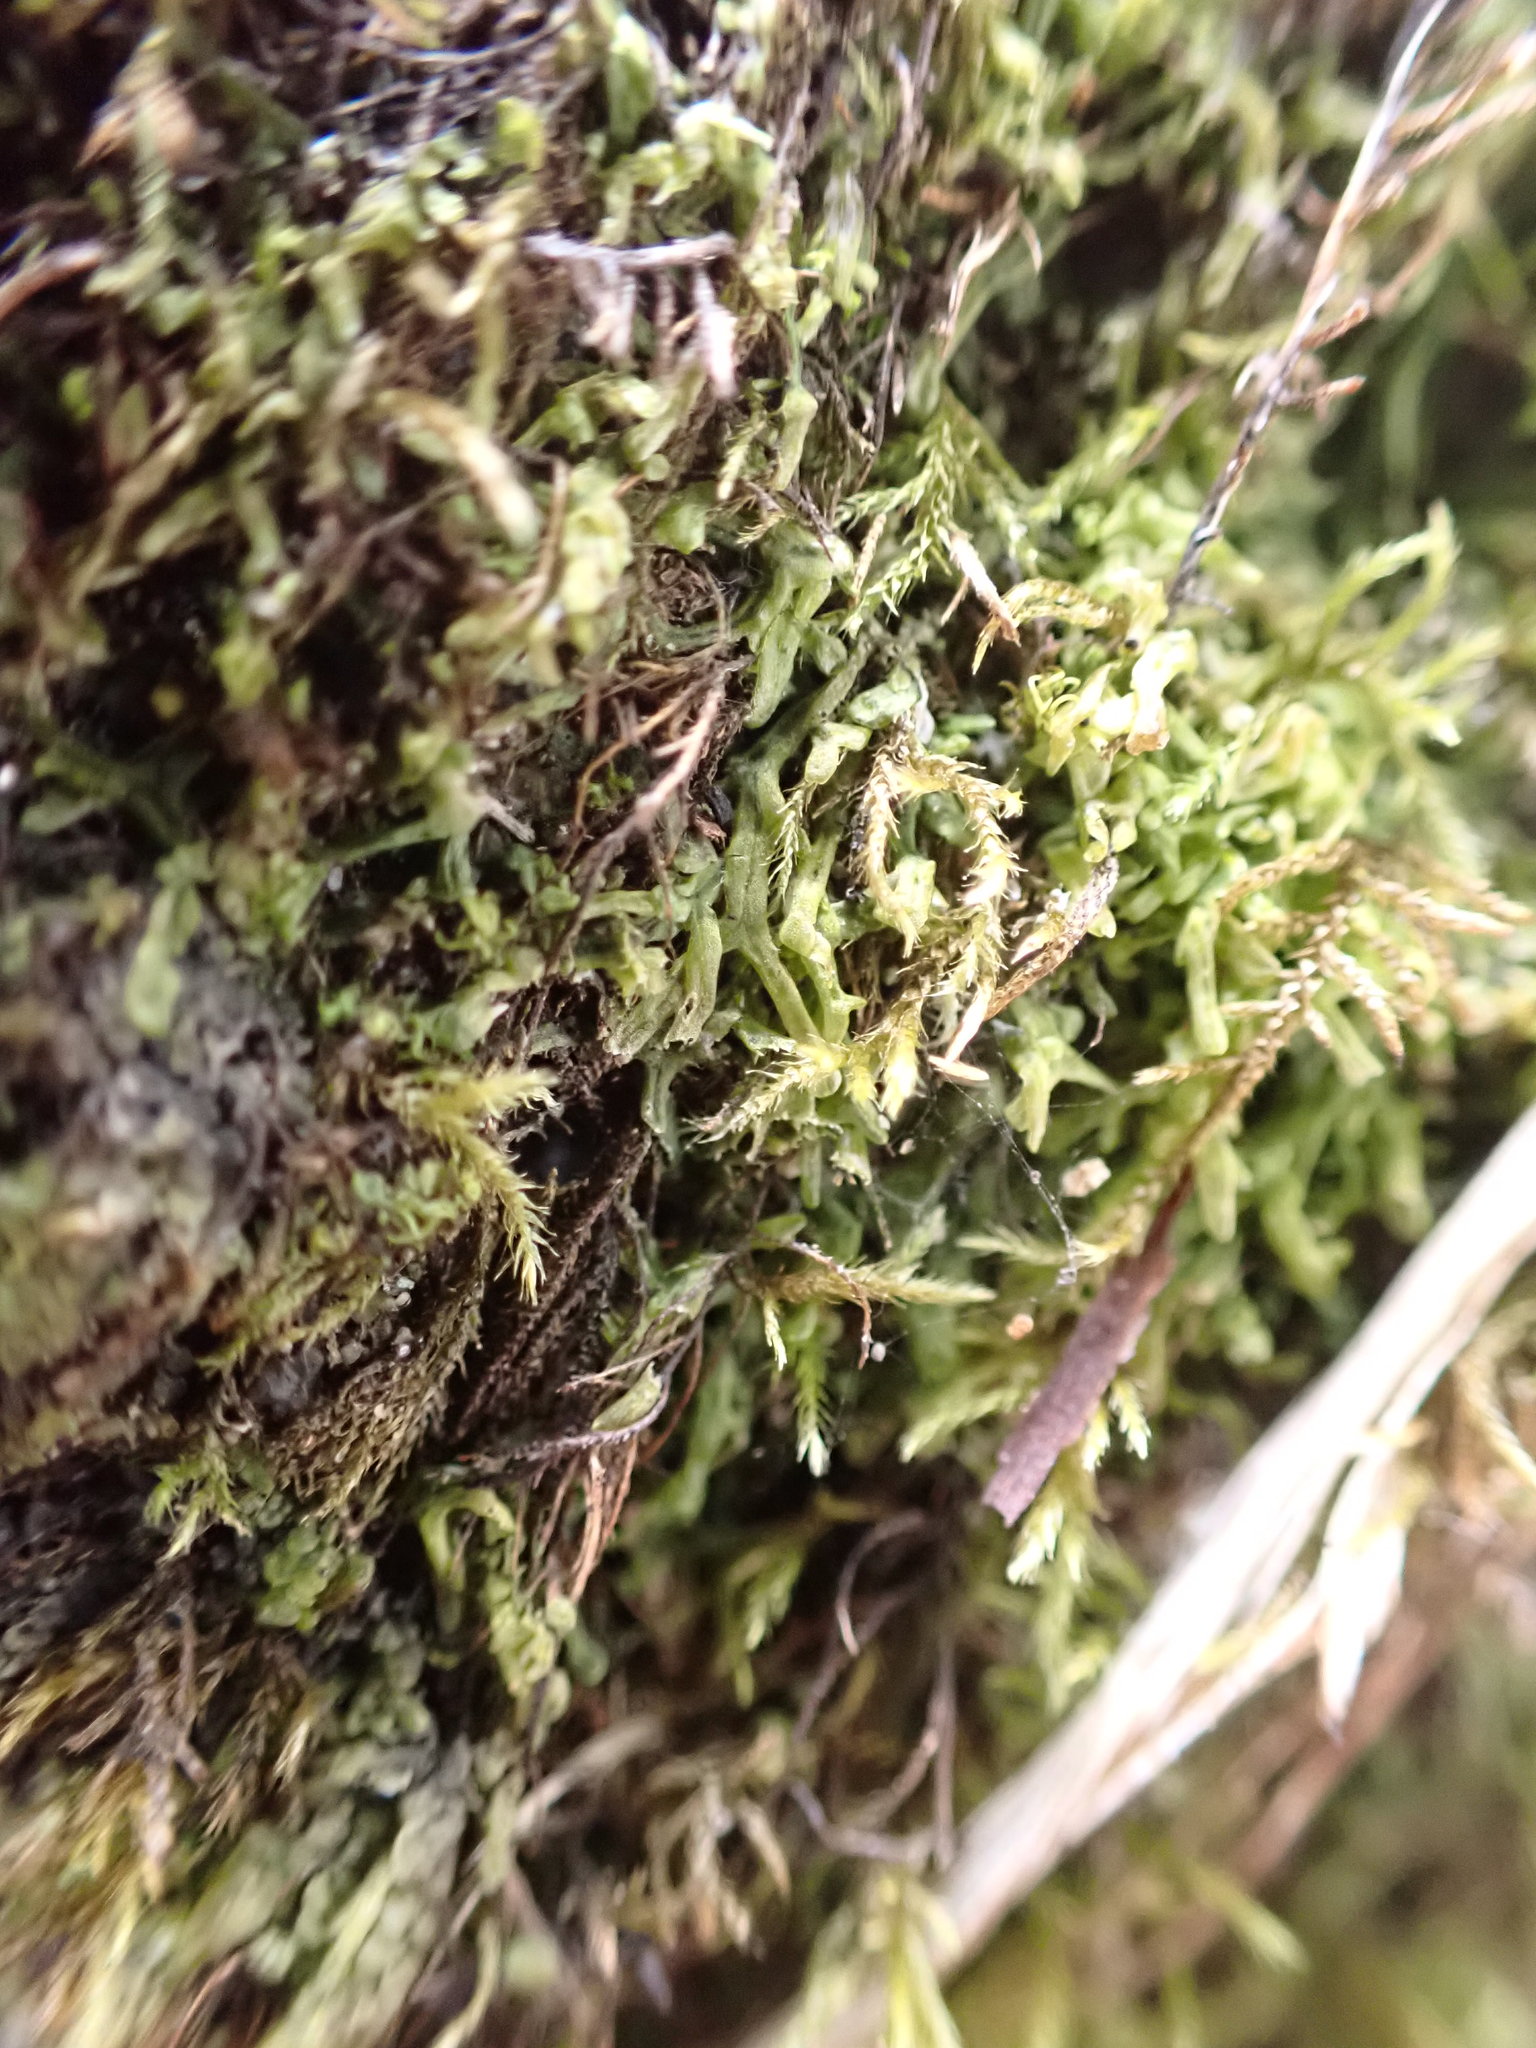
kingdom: Plantae
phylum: Marchantiophyta
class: Jungermanniopsida
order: Metzgeriales
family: Metzgeriaceae
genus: Metzgeria
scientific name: Metzgeria conjugata
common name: Rock veilwort
